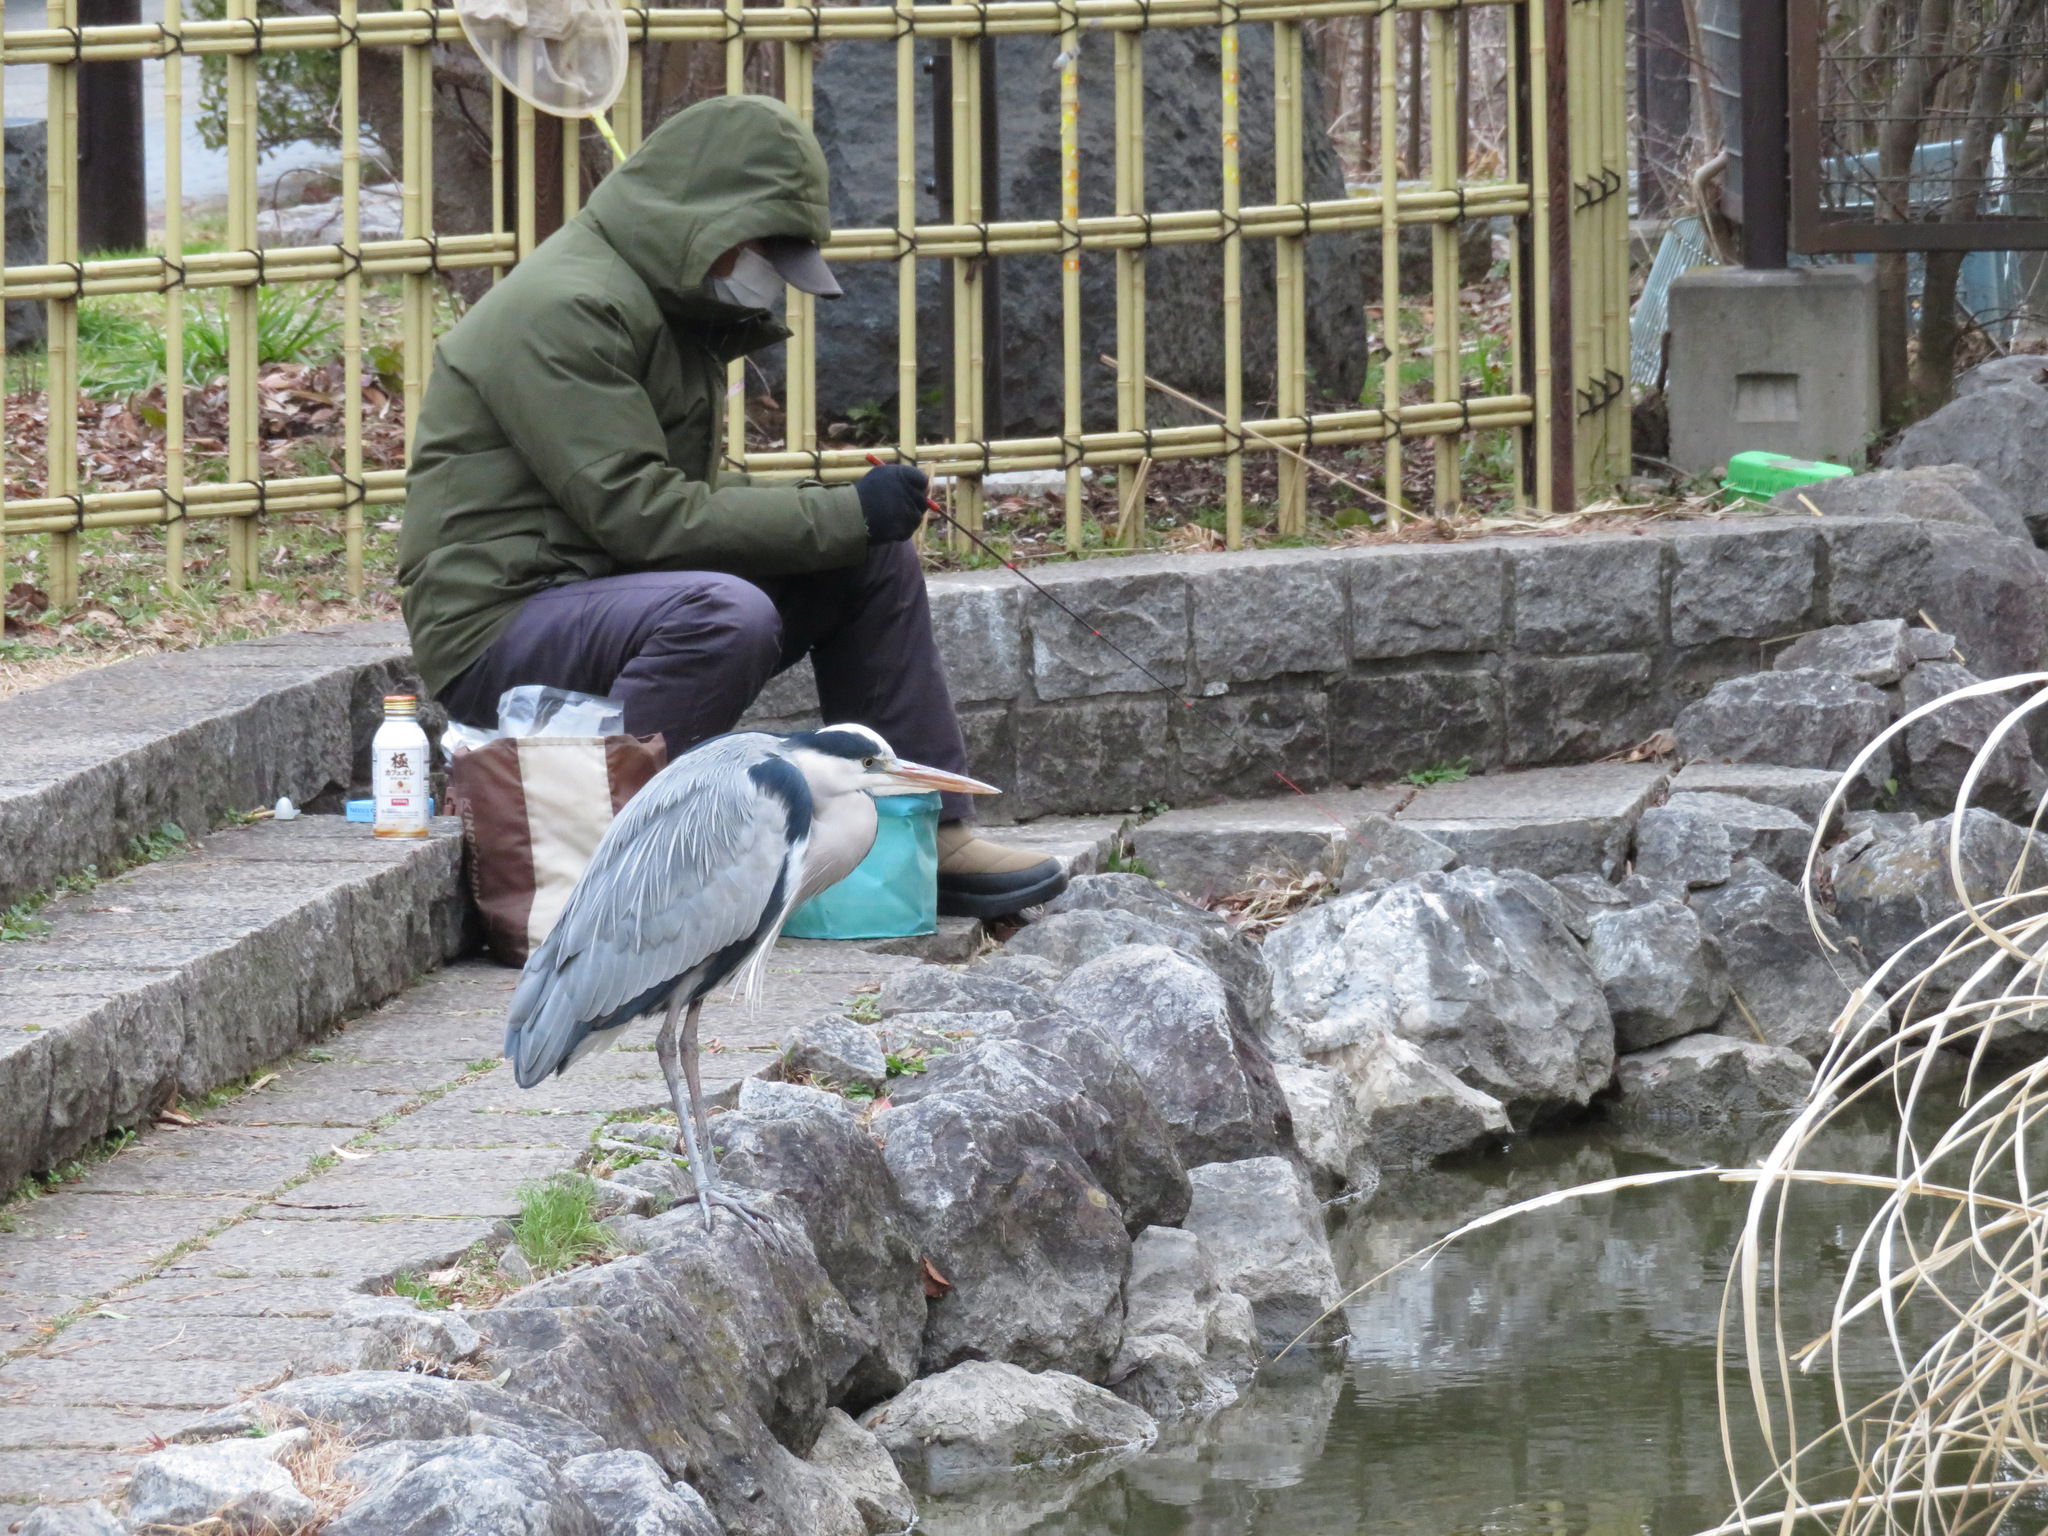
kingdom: Animalia
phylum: Chordata
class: Aves
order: Pelecaniformes
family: Ardeidae
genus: Ardea
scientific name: Ardea cinerea
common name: Grey heron
